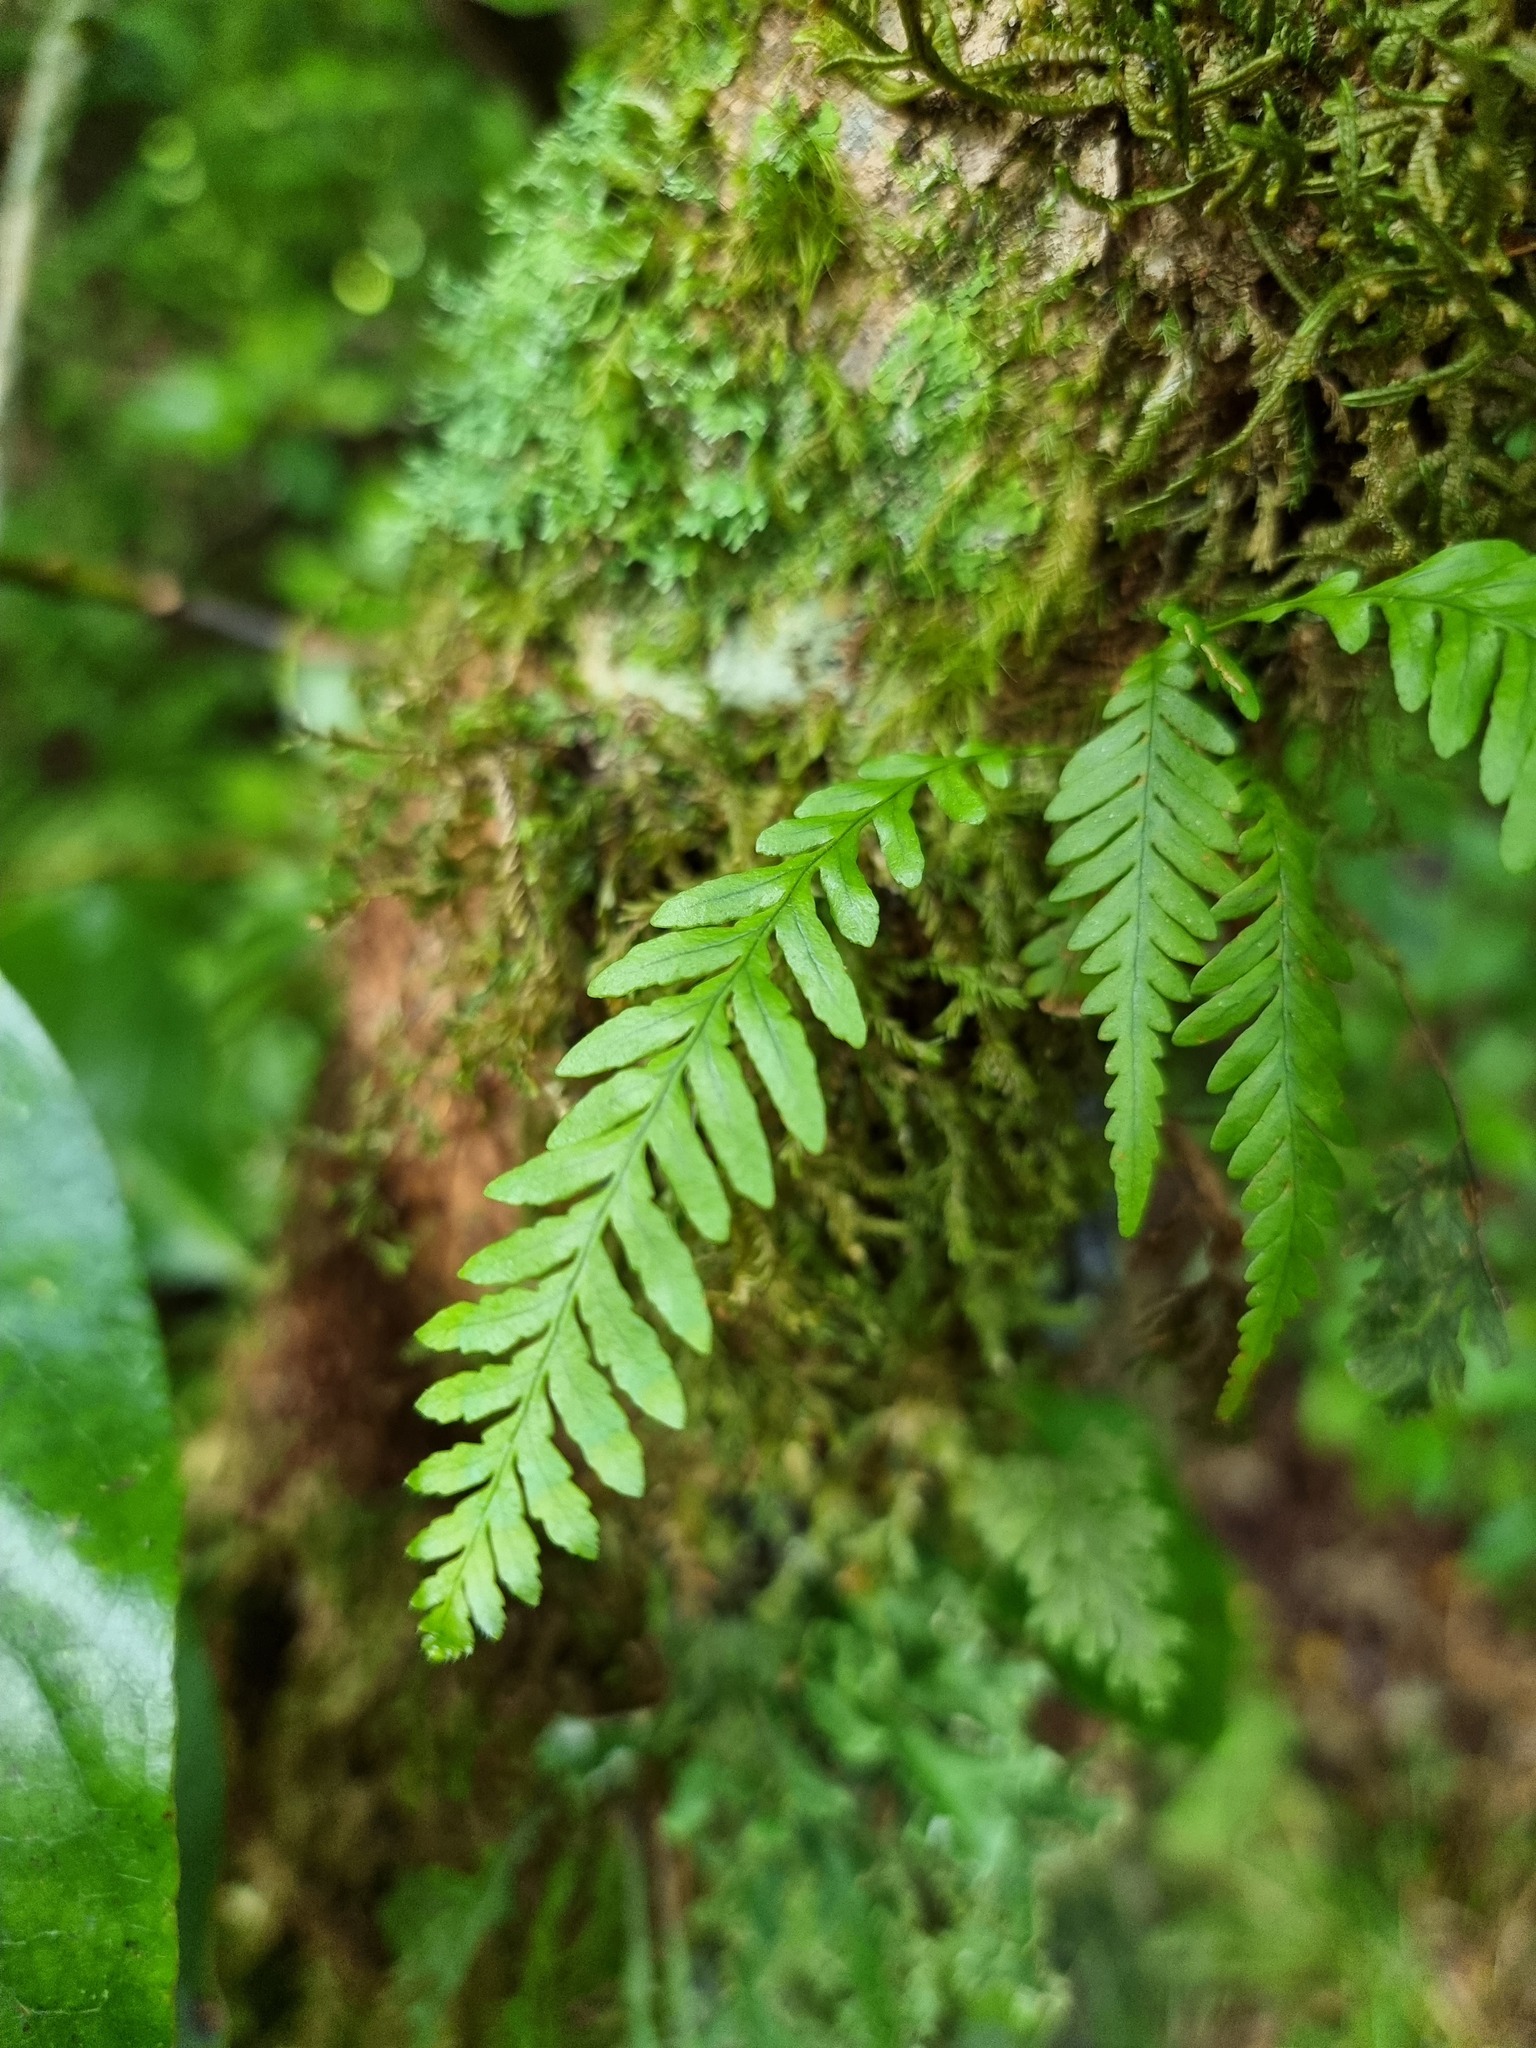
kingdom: Plantae
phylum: Tracheophyta
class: Polypodiopsida
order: Polypodiales
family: Polypodiaceae
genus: Notogrammitis
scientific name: Notogrammitis heterophylla
